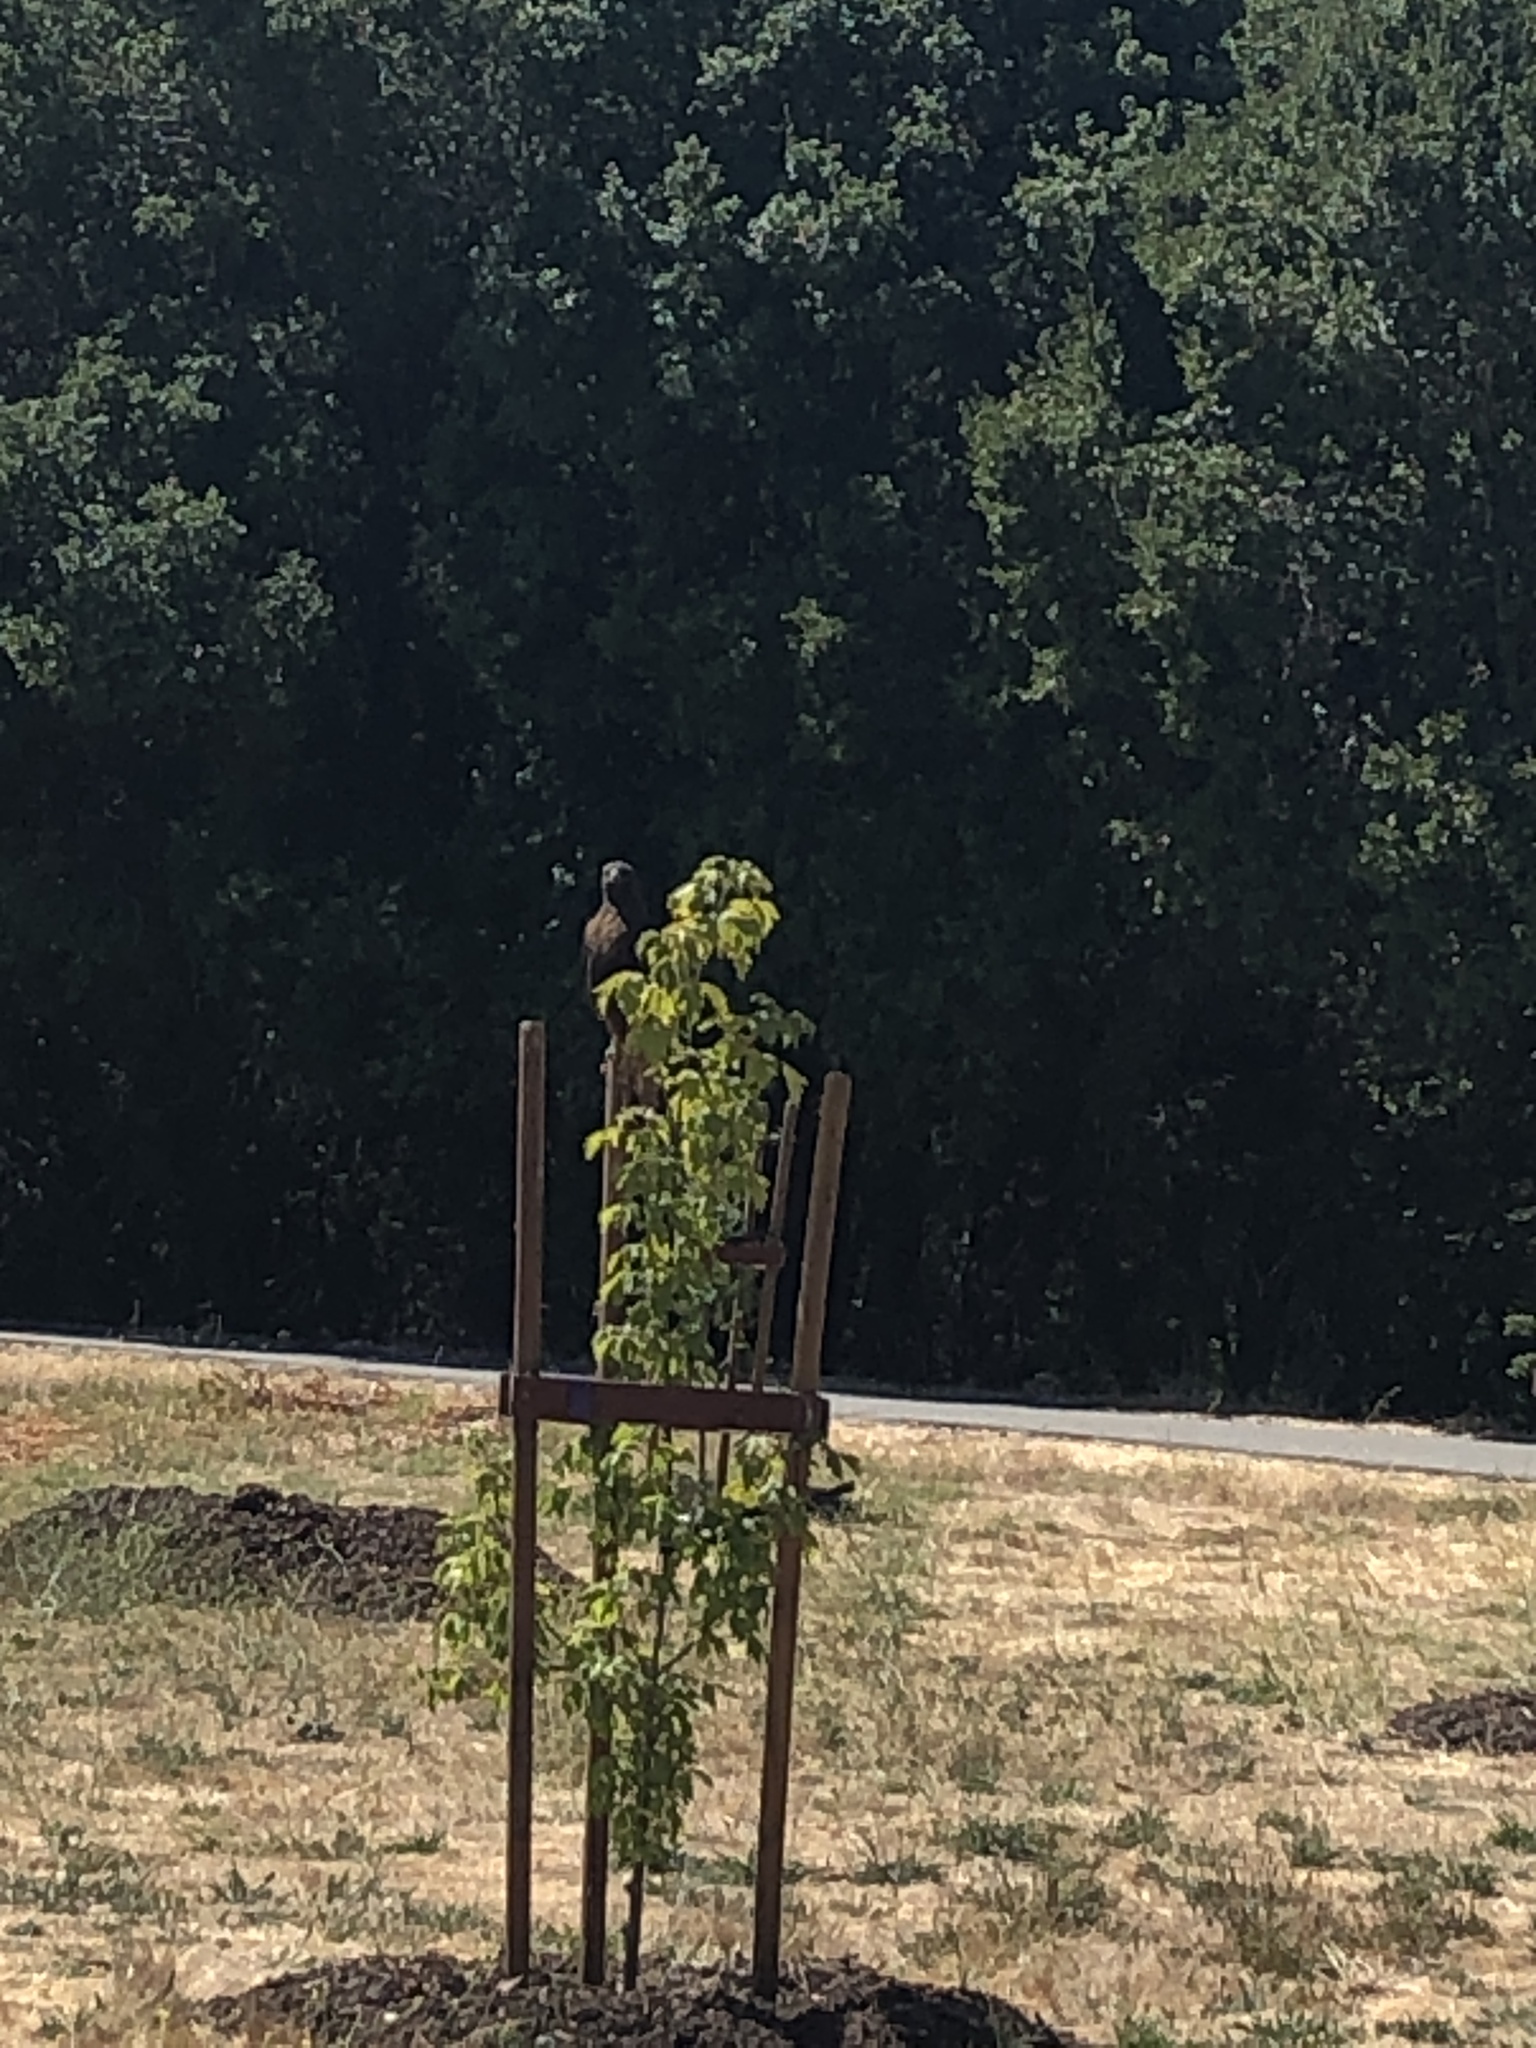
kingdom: Animalia
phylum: Chordata
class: Aves
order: Accipitriformes
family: Accipitridae
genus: Buteo
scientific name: Buteo jamaicensis
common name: Red-tailed hawk
